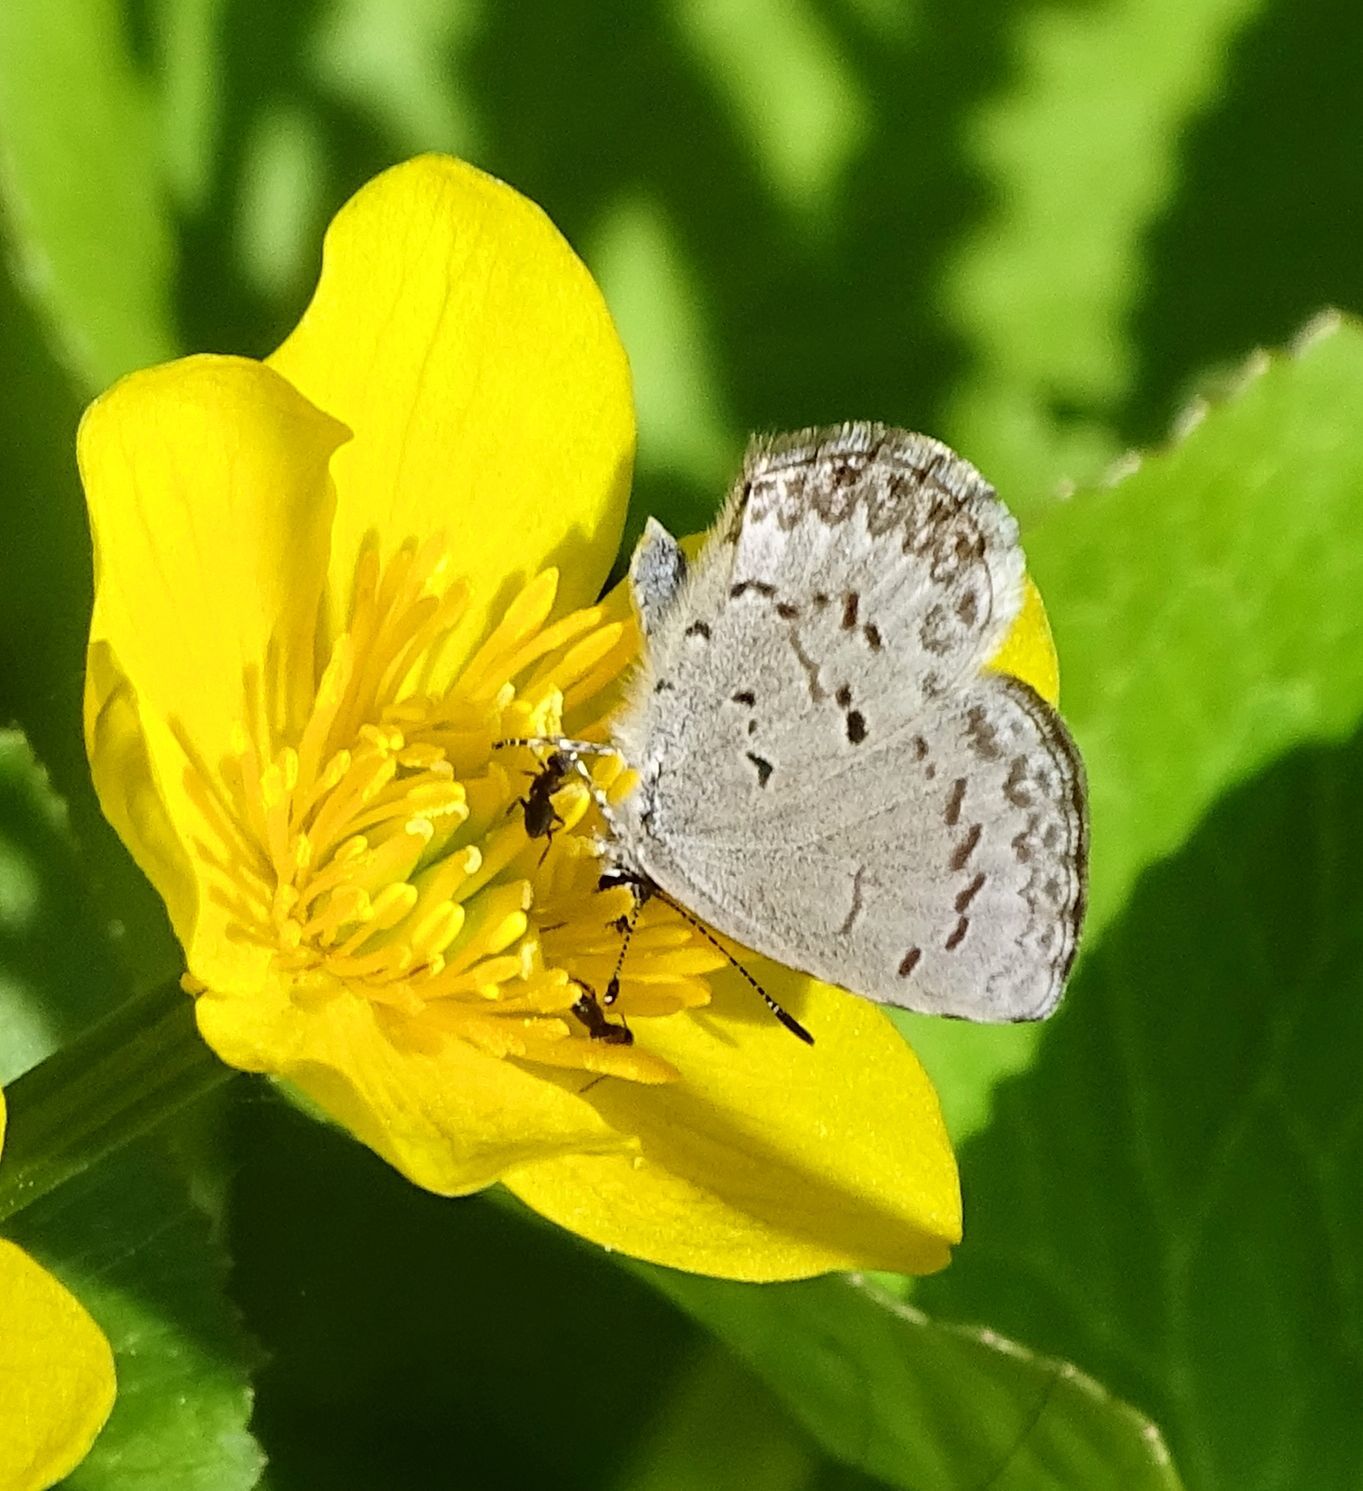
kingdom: Animalia
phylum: Arthropoda
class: Insecta
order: Lepidoptera
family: Lycaenidae
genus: Celastrina
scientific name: Celastrina lucia
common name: Lucia azure
